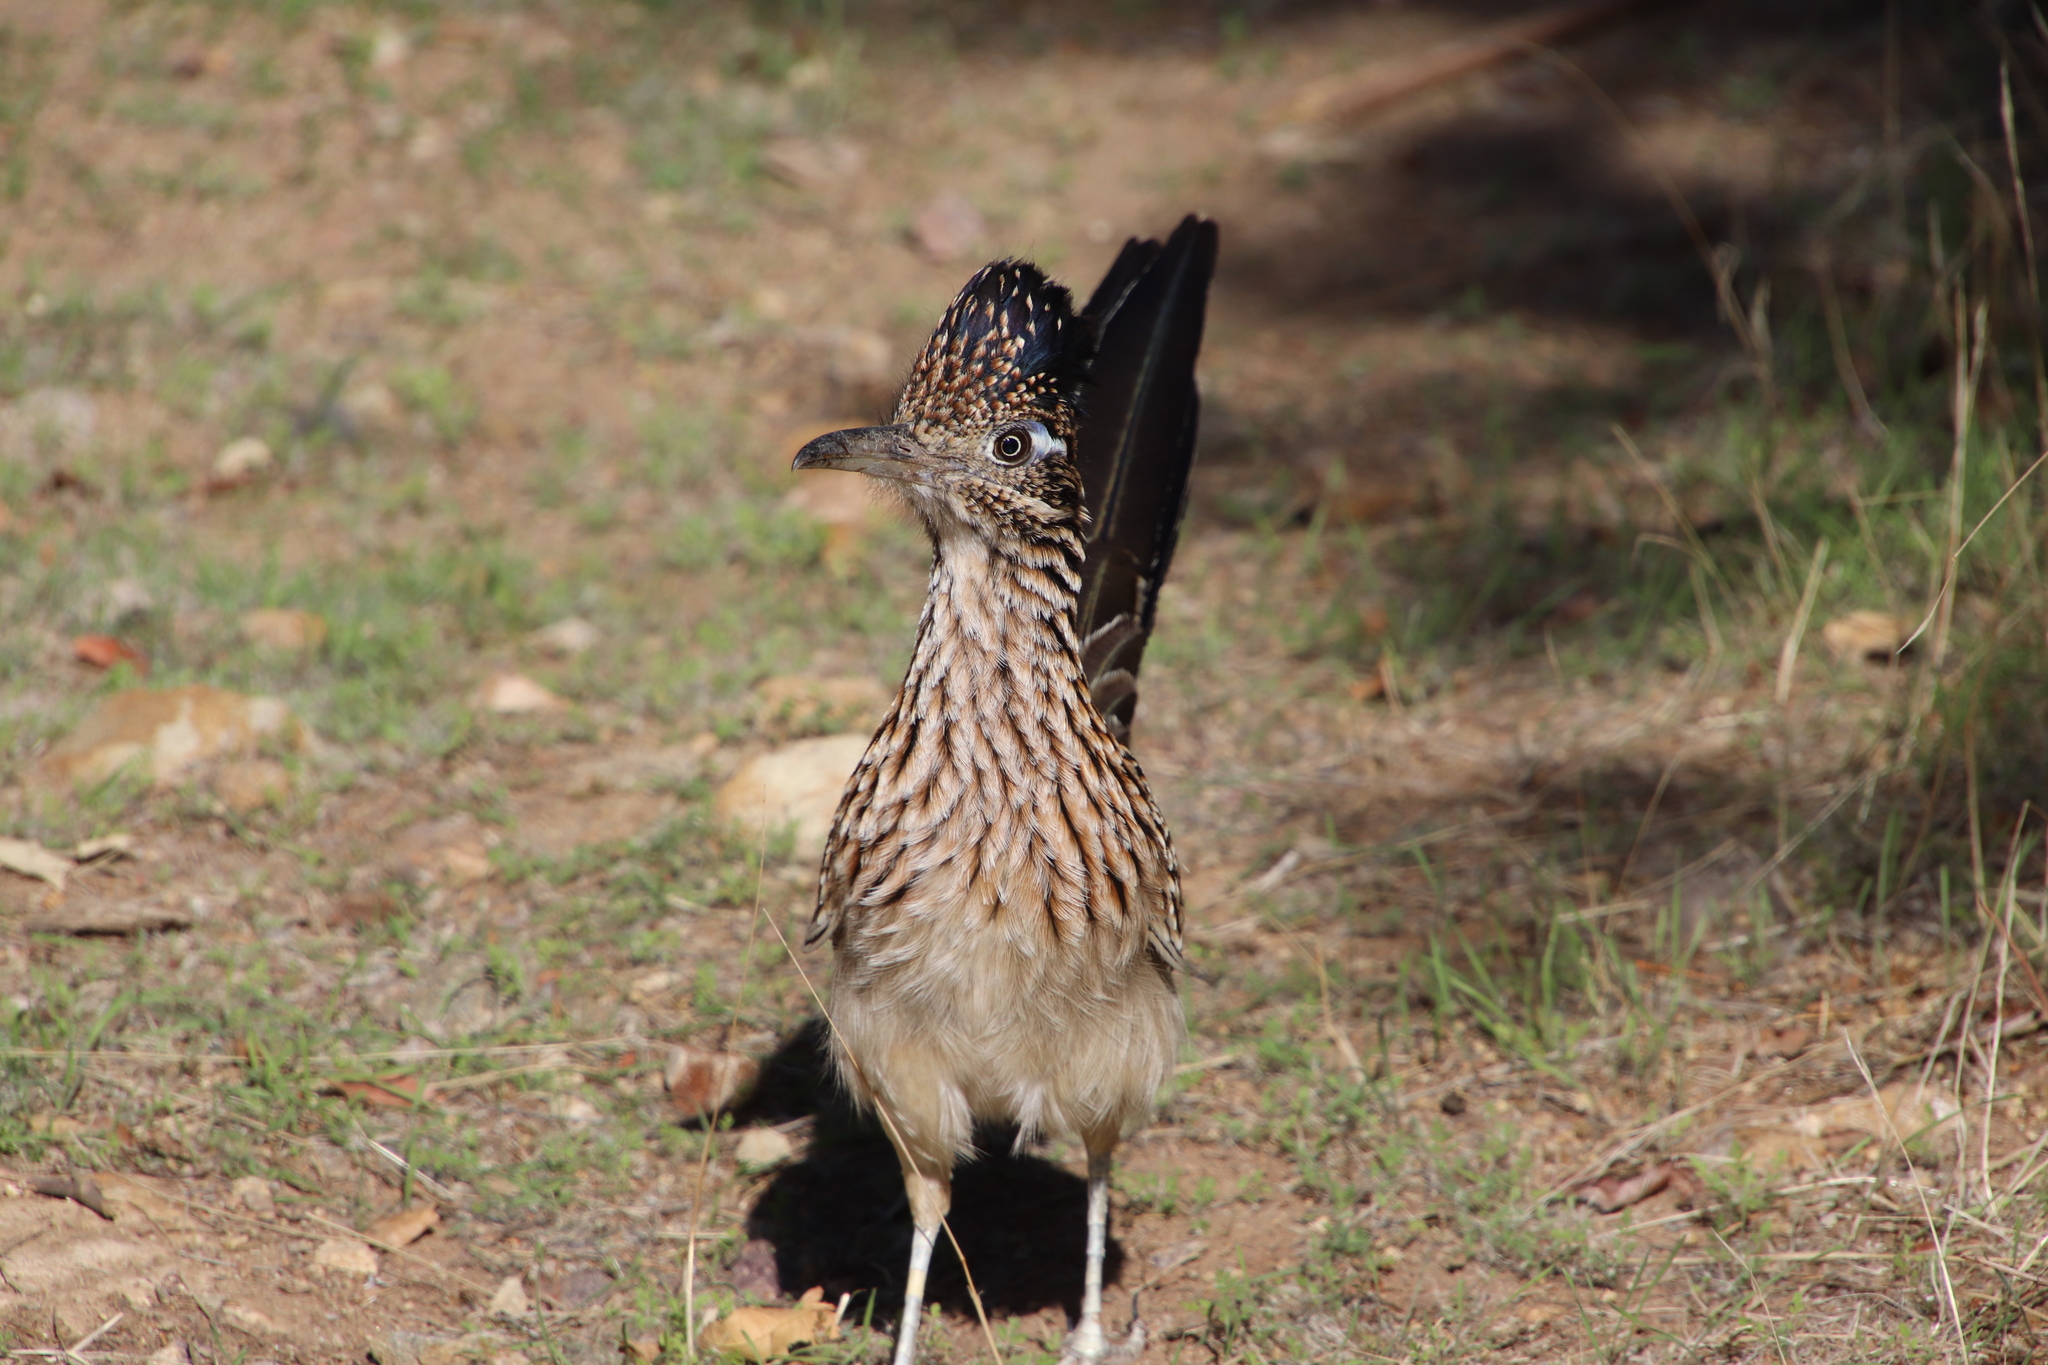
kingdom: Animalia
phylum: Chordata
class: Aves
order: Cuculiformes
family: Cuculidae
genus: Geococcyx
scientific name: Geococcyx californianus
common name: Greater roadrunner
